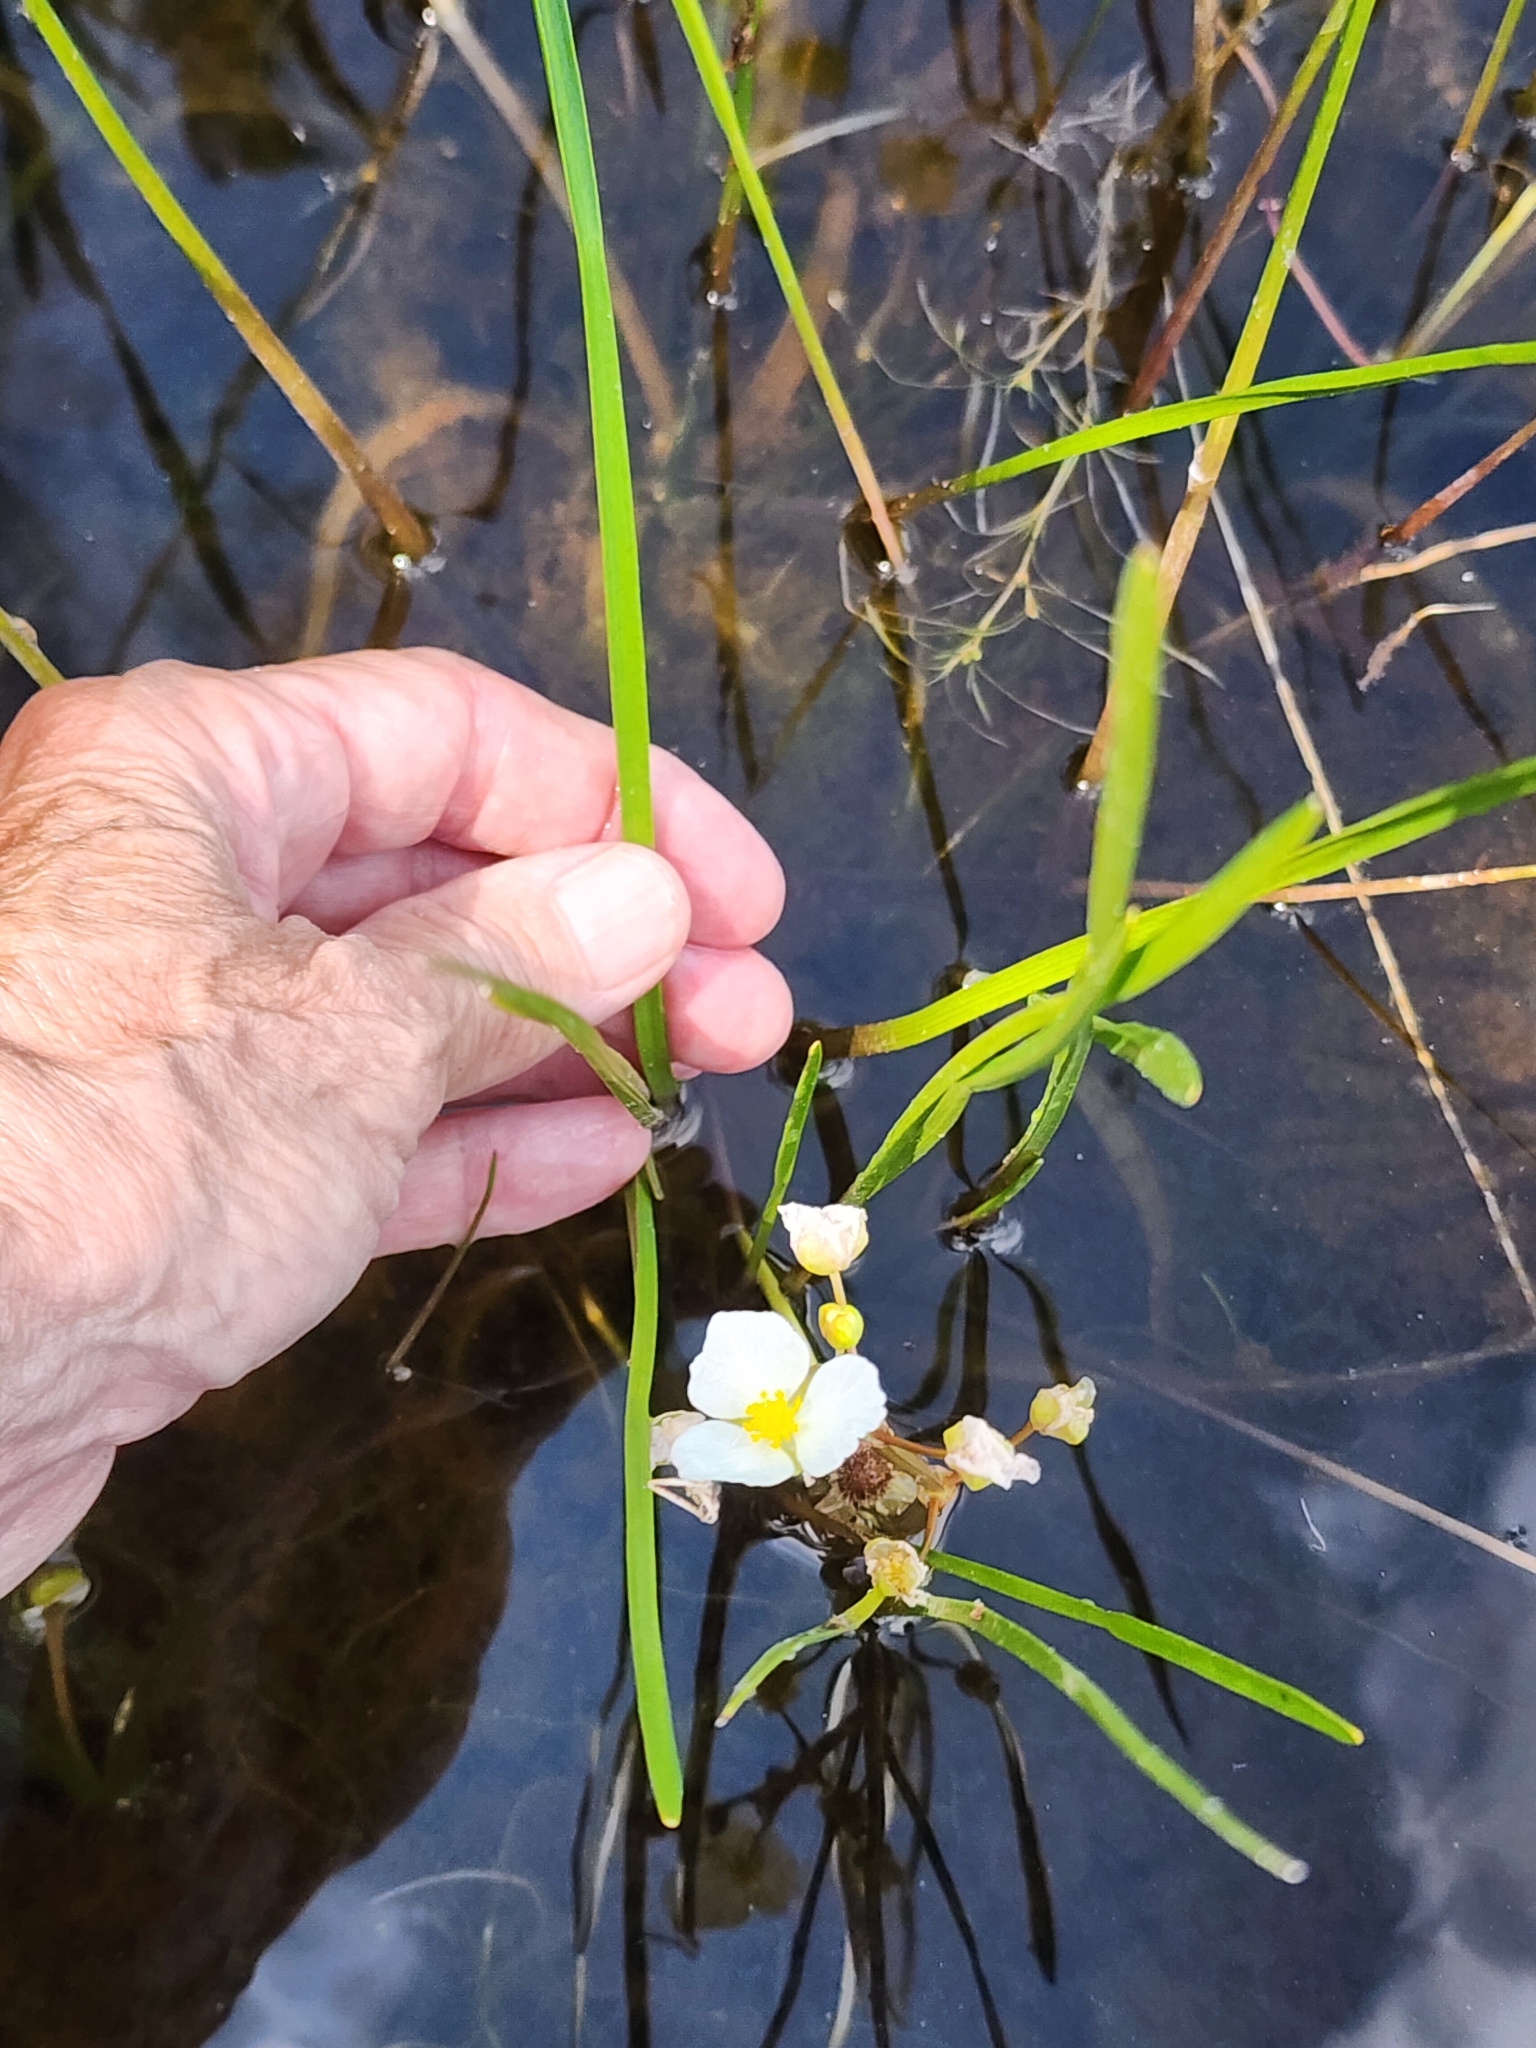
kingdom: Plantae
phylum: Tracheophyta
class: Liliopsida
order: Alismatales
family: Alismataceae
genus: Sagittaria
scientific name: Sagittaria rigida
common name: Canadian arrowhead
